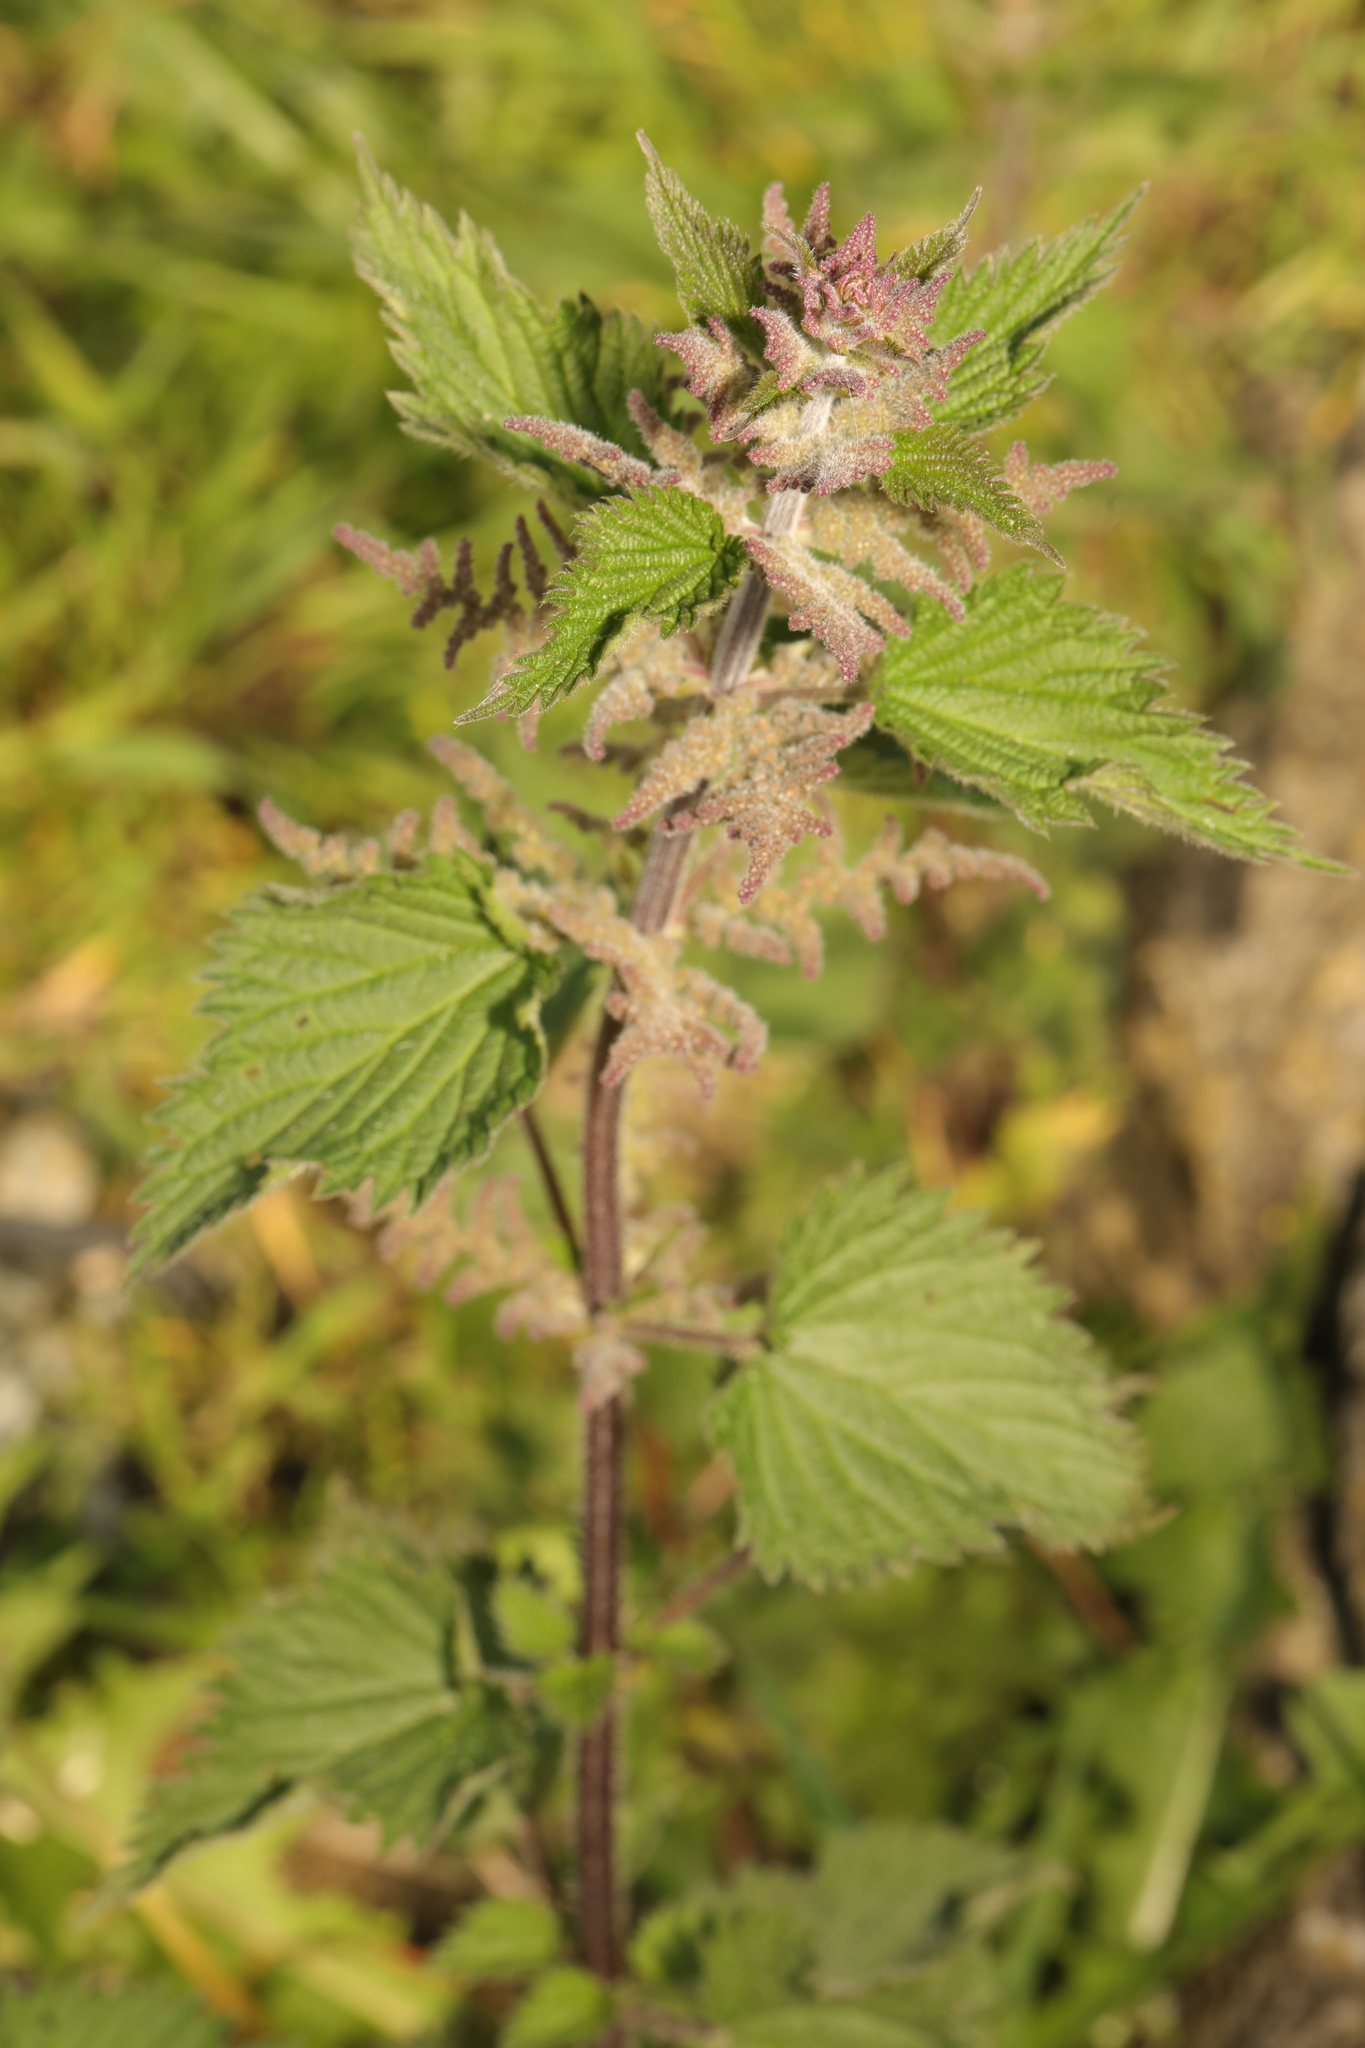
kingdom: Plantae
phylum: Tracheophyta
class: Magnoliopsida
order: Rosales
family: Urticaceae
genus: Urtica
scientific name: Urtica dioica
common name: Common nettle
